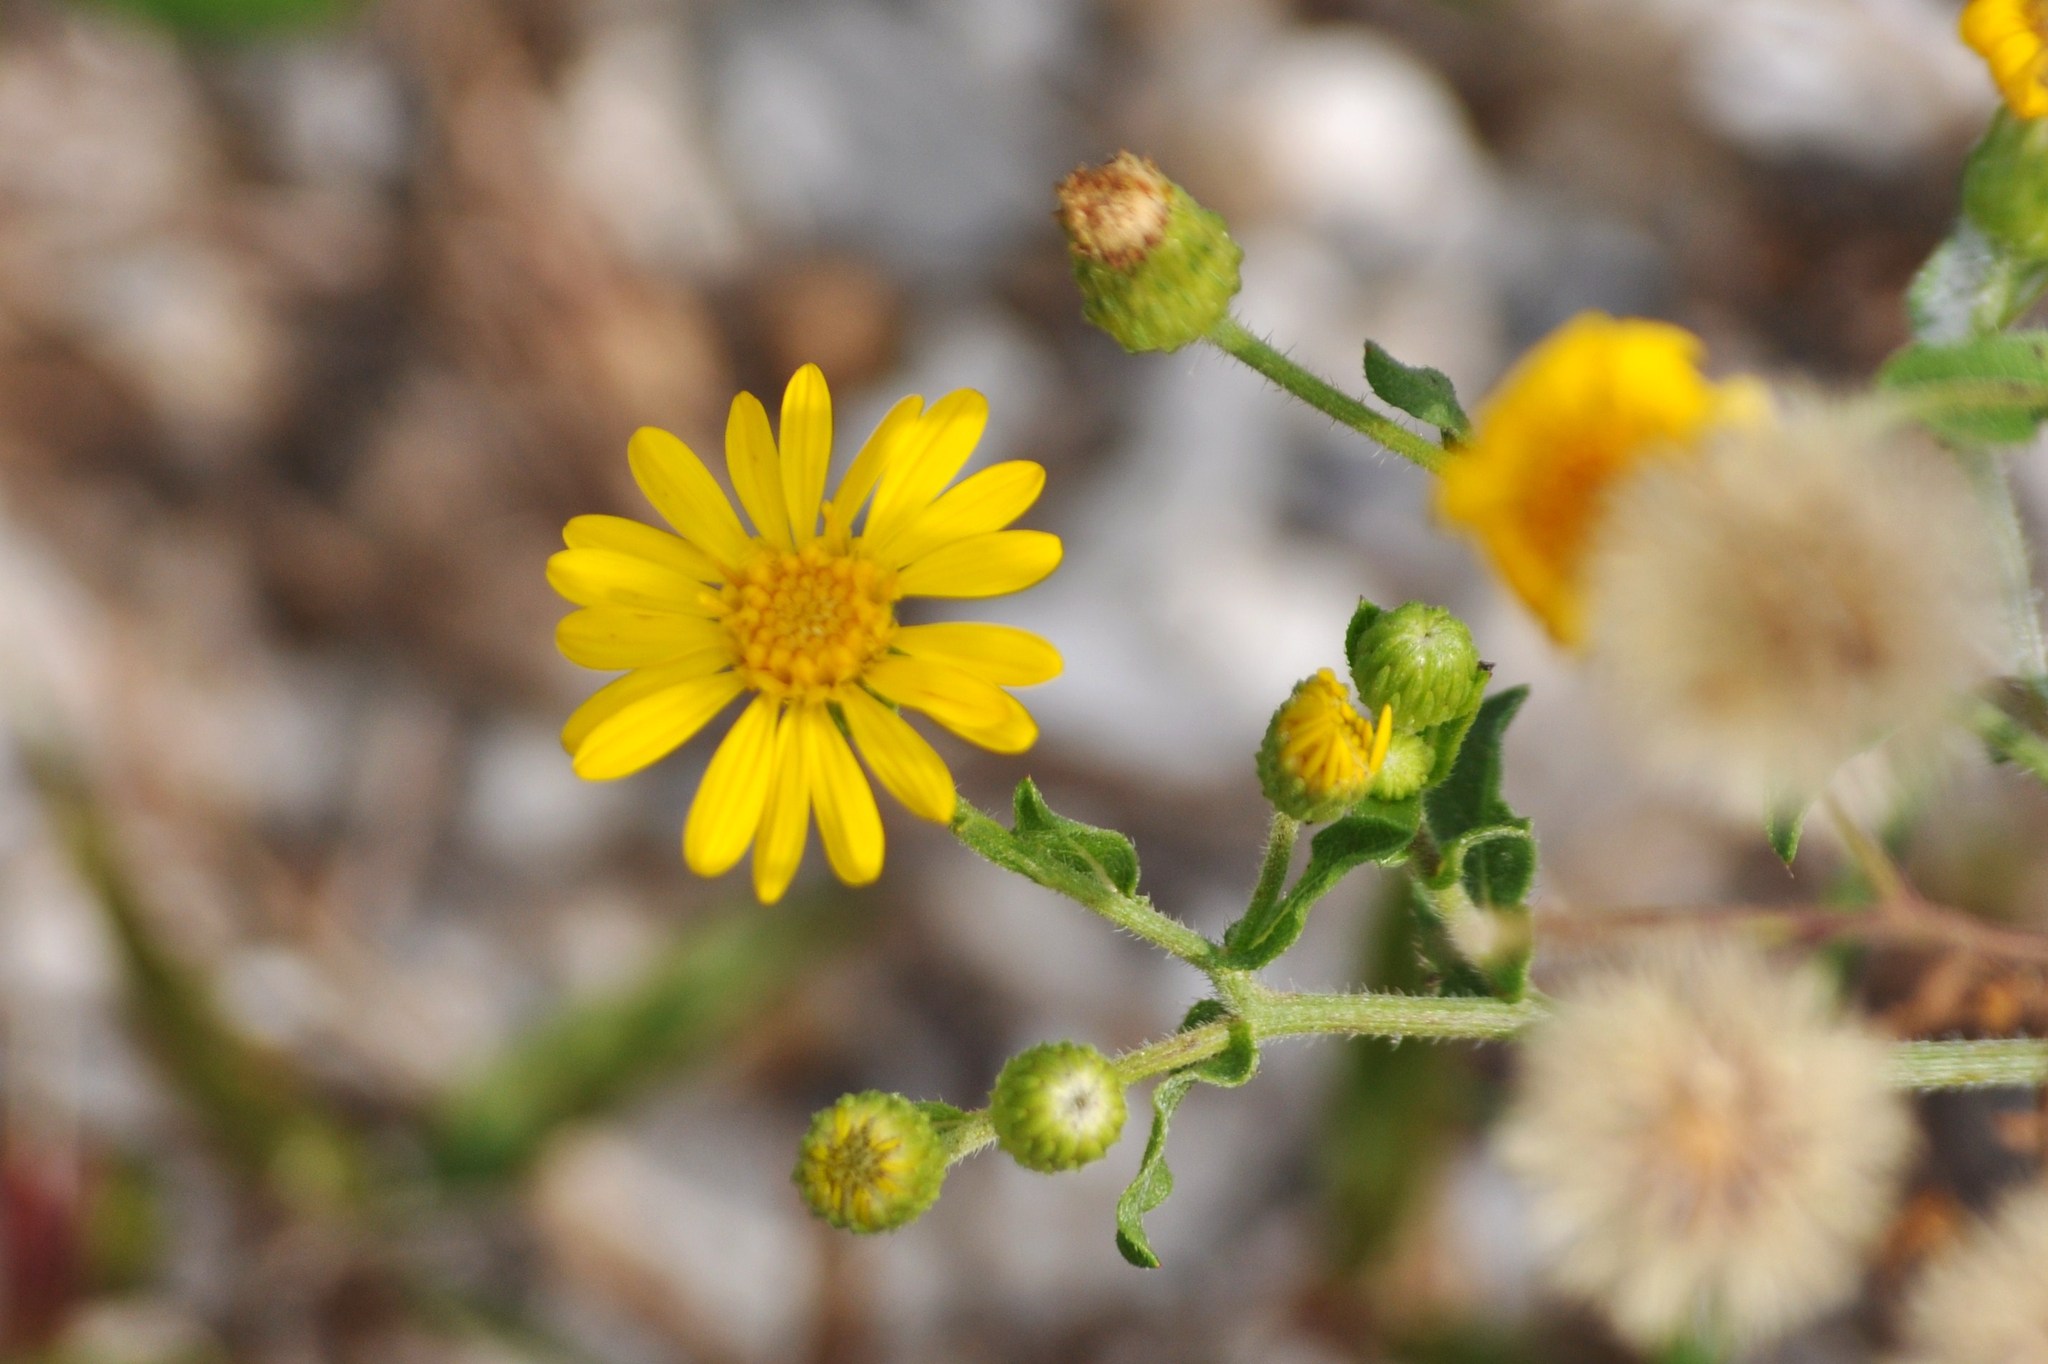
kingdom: Plantae
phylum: Tracheophyta
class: Magnoliopsida
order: Asterales
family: Asteraceae
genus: Heterotheca
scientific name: Heterotheca subaxillaris
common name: Camphorweed
